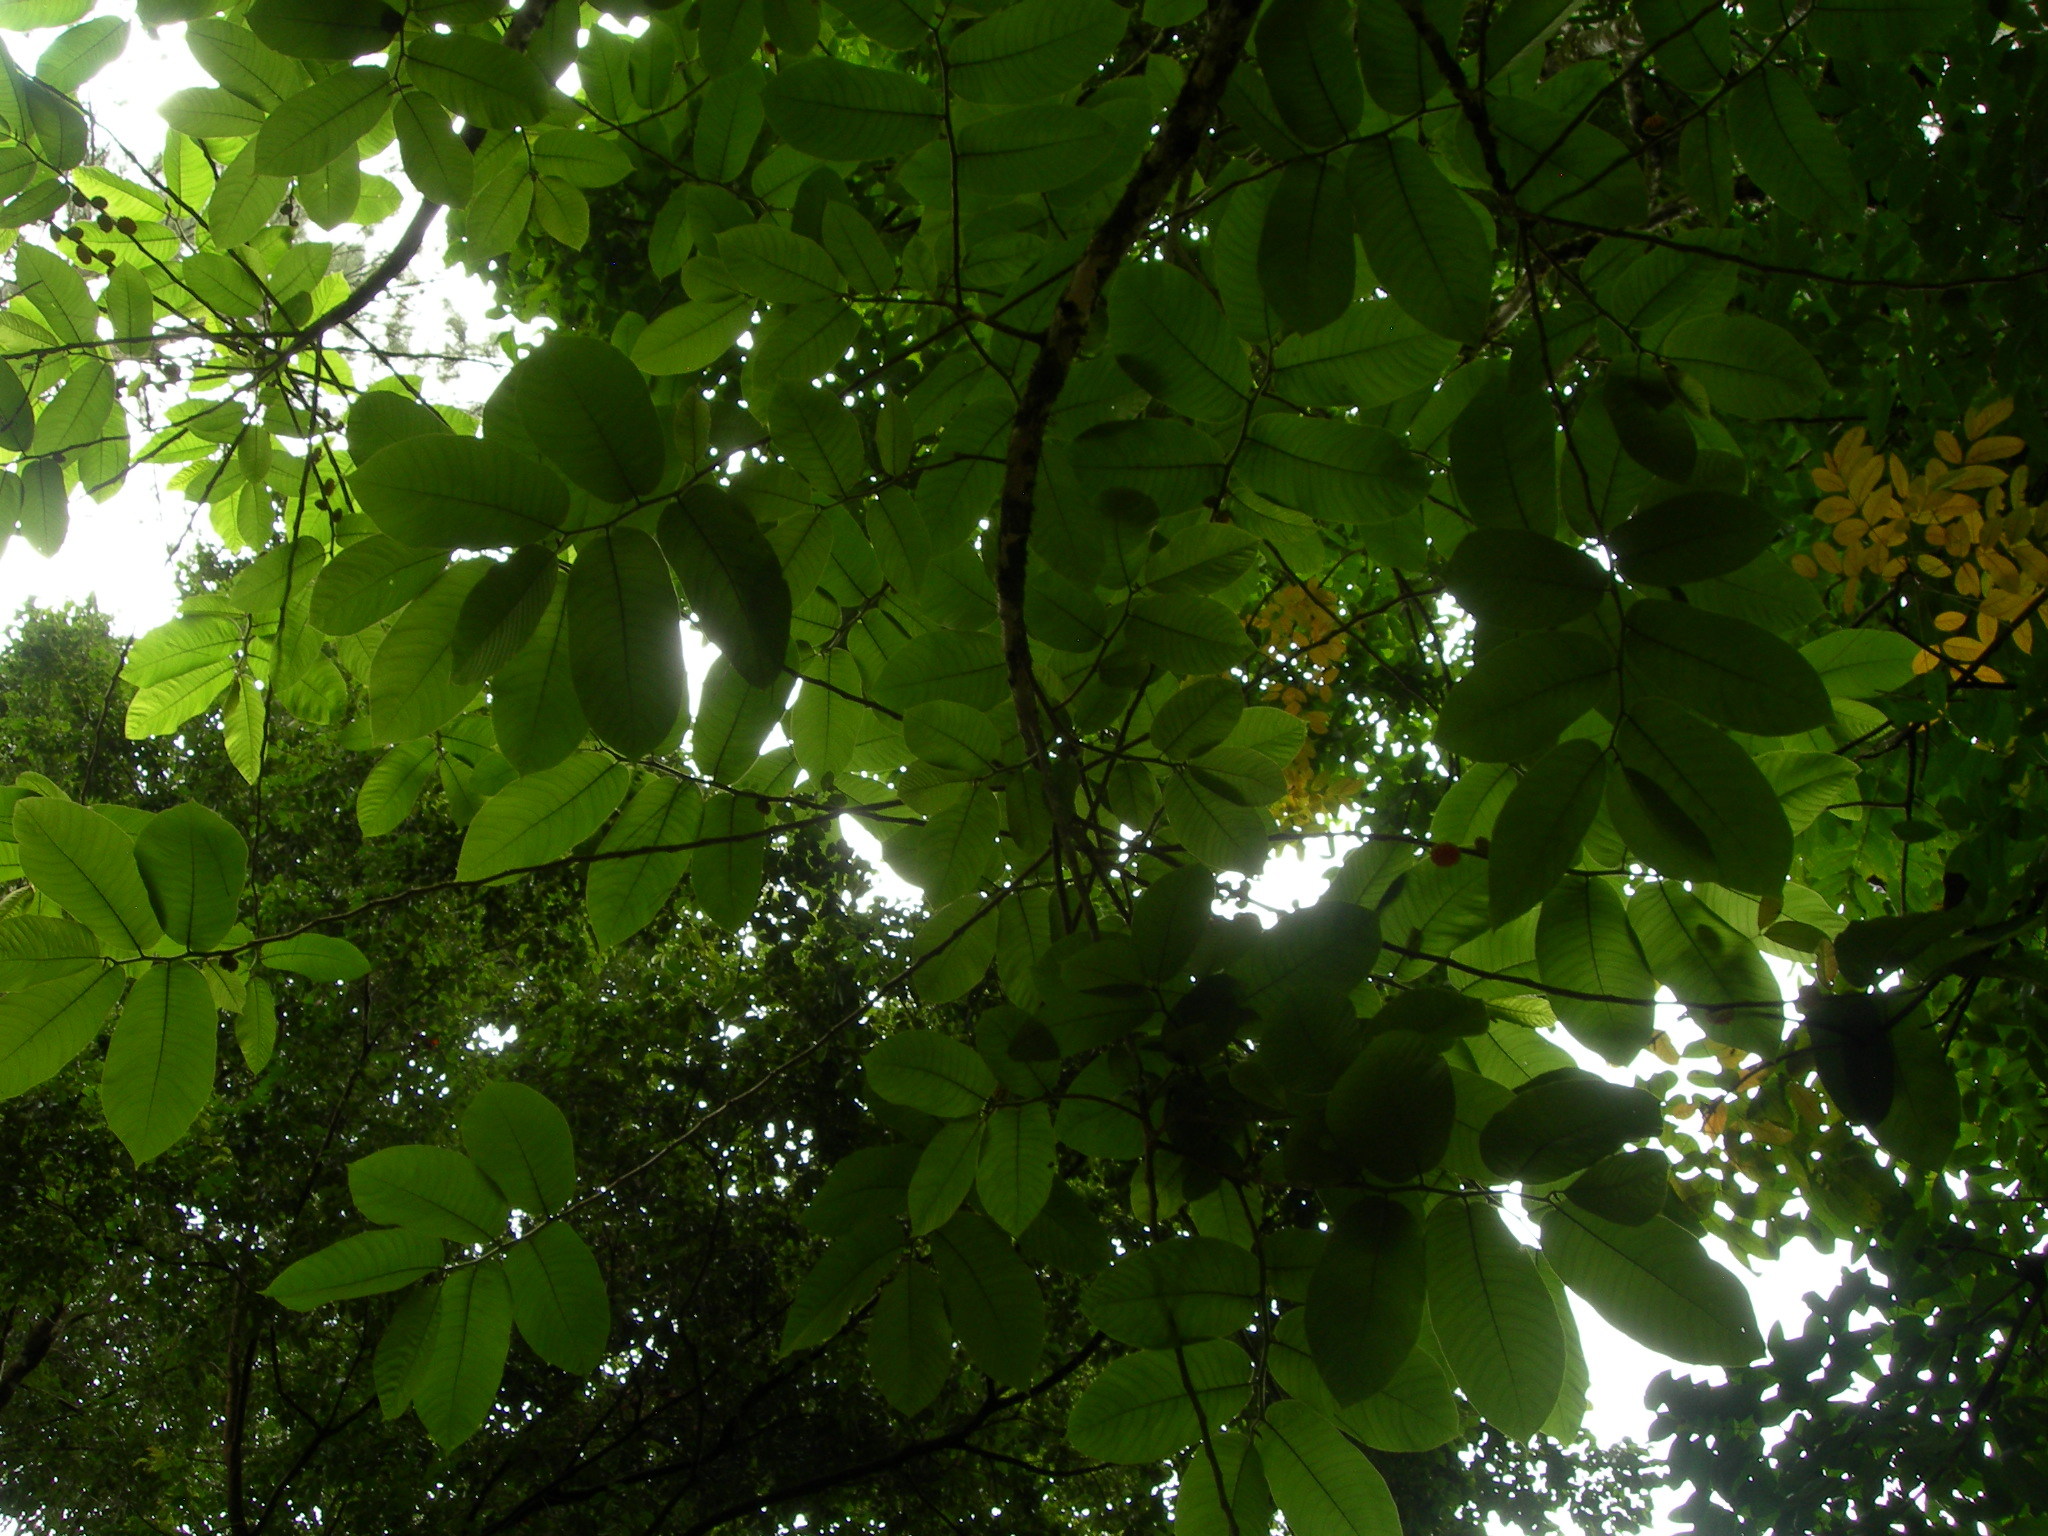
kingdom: Plantae
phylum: Tracheophyta
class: Magnoliopsida
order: Rosales
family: Moraceae
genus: Castilla
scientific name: Castilla elastica
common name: Castilla rubber
